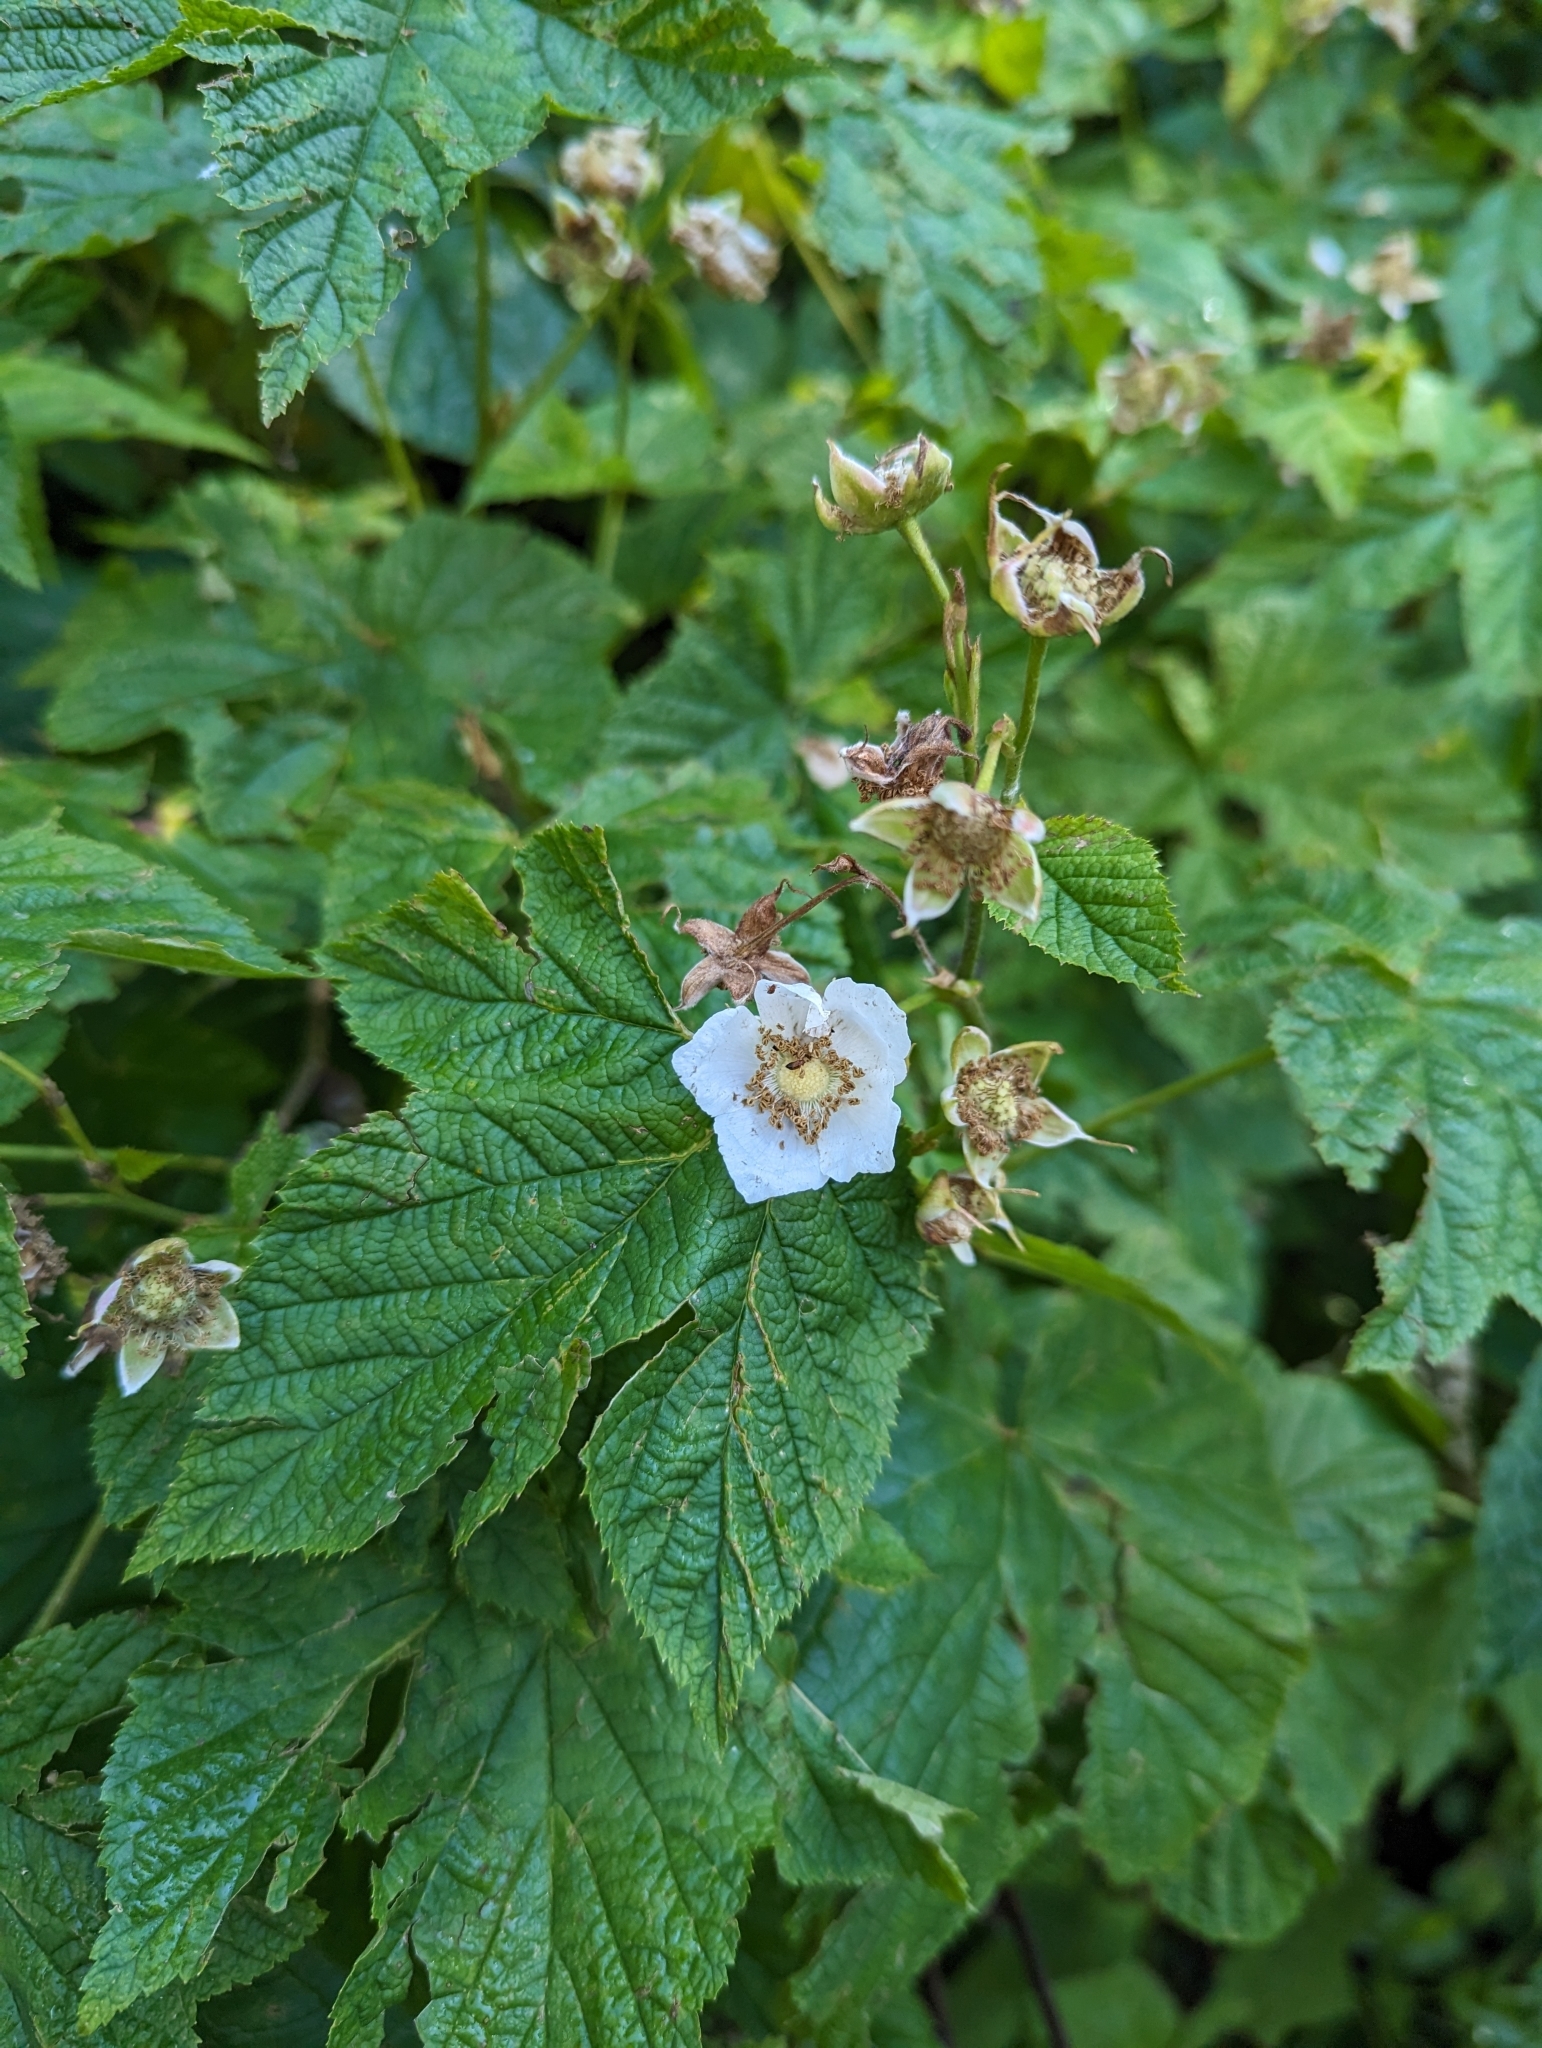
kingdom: Plantae
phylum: Tracheophyta
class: Magnoliopsida
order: Rosales
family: Rosaceae
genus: Rubus
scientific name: Rubus parviflorus
